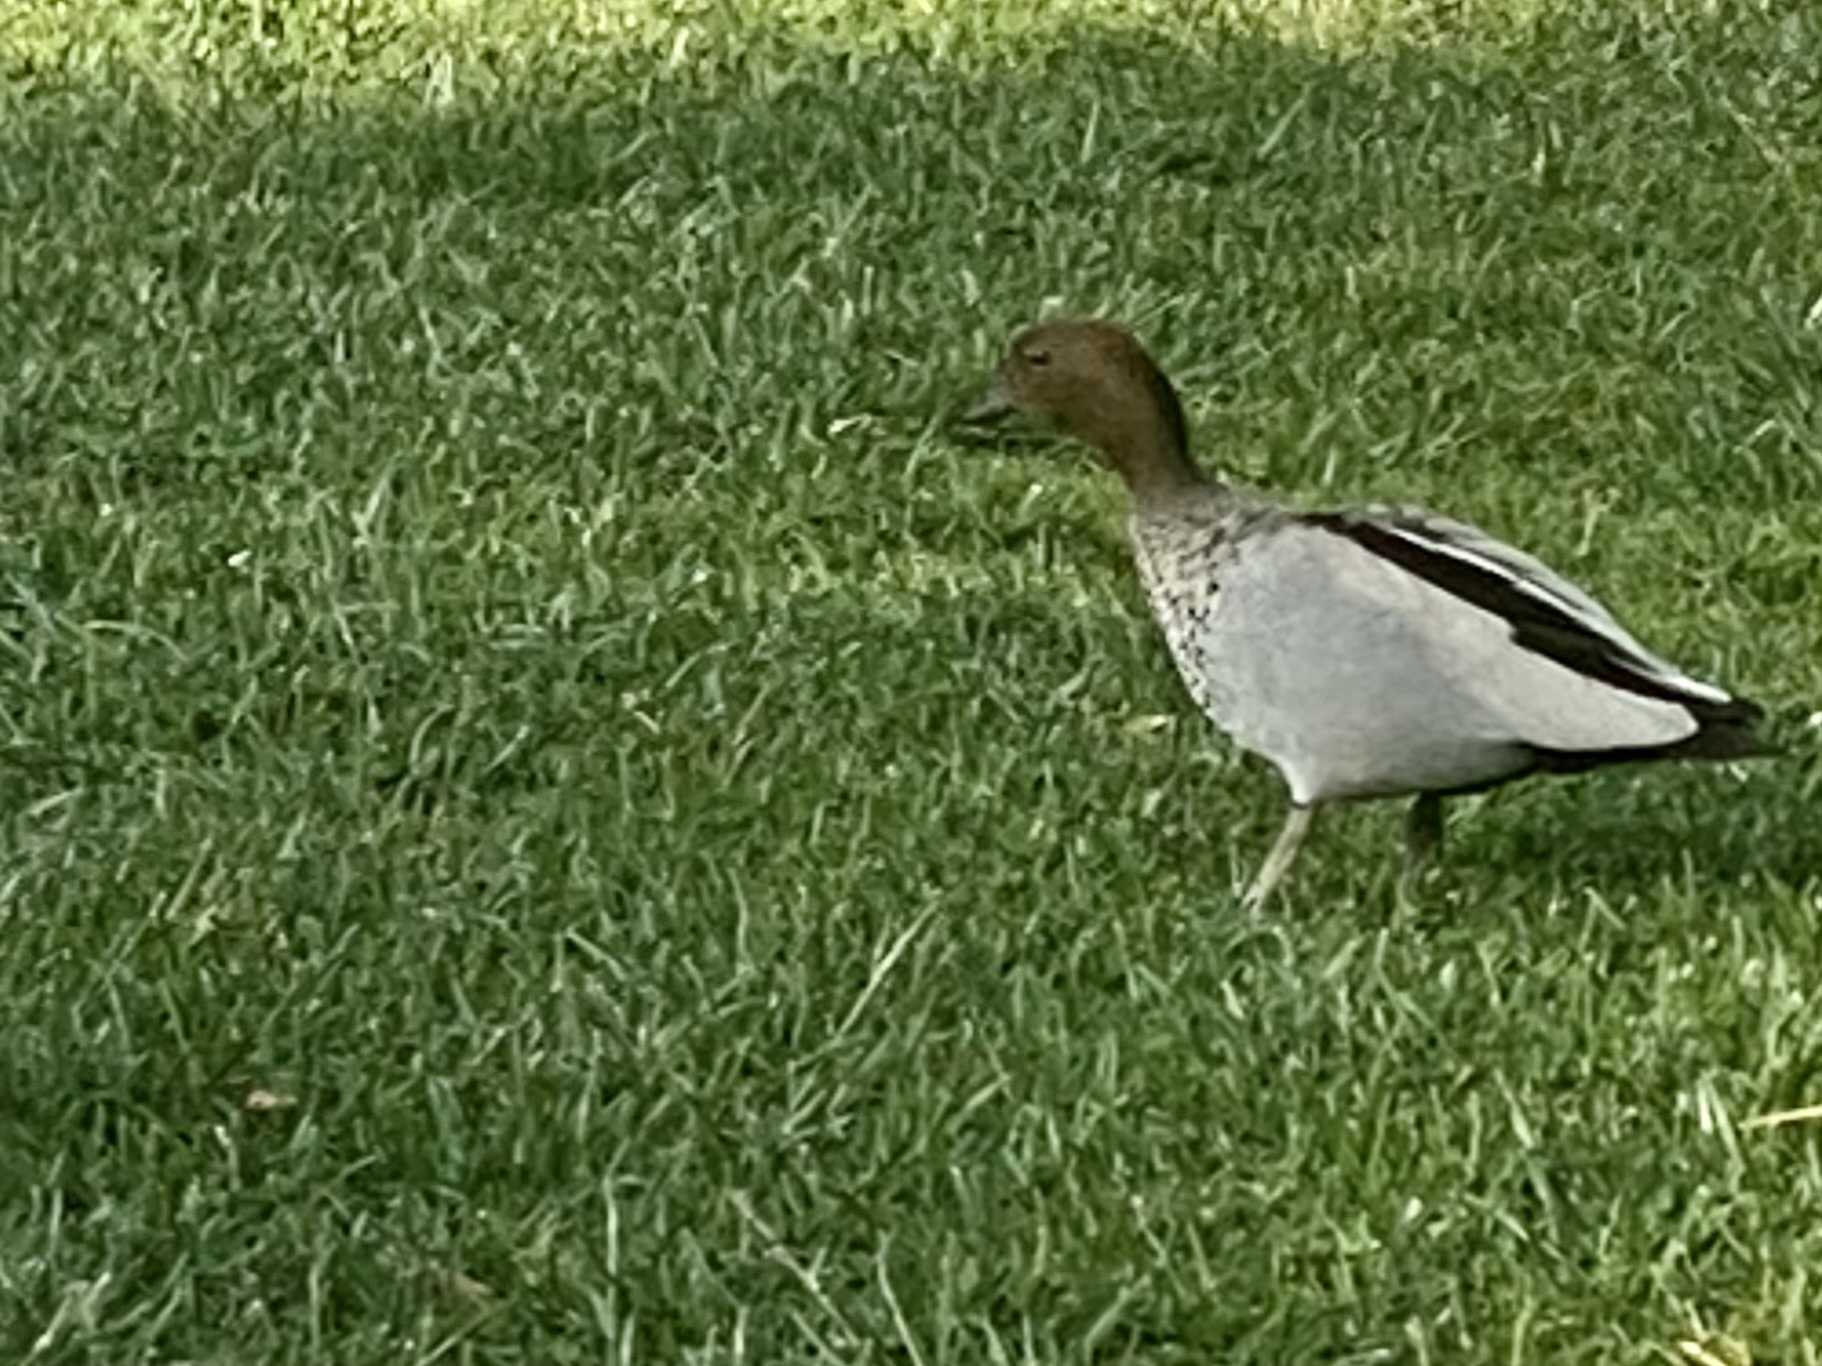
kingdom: Animalia
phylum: Chordata
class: Aves
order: Anseriformes
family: Anatidae
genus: Chenonetta
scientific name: Chenonetta jubata
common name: Maned duck
